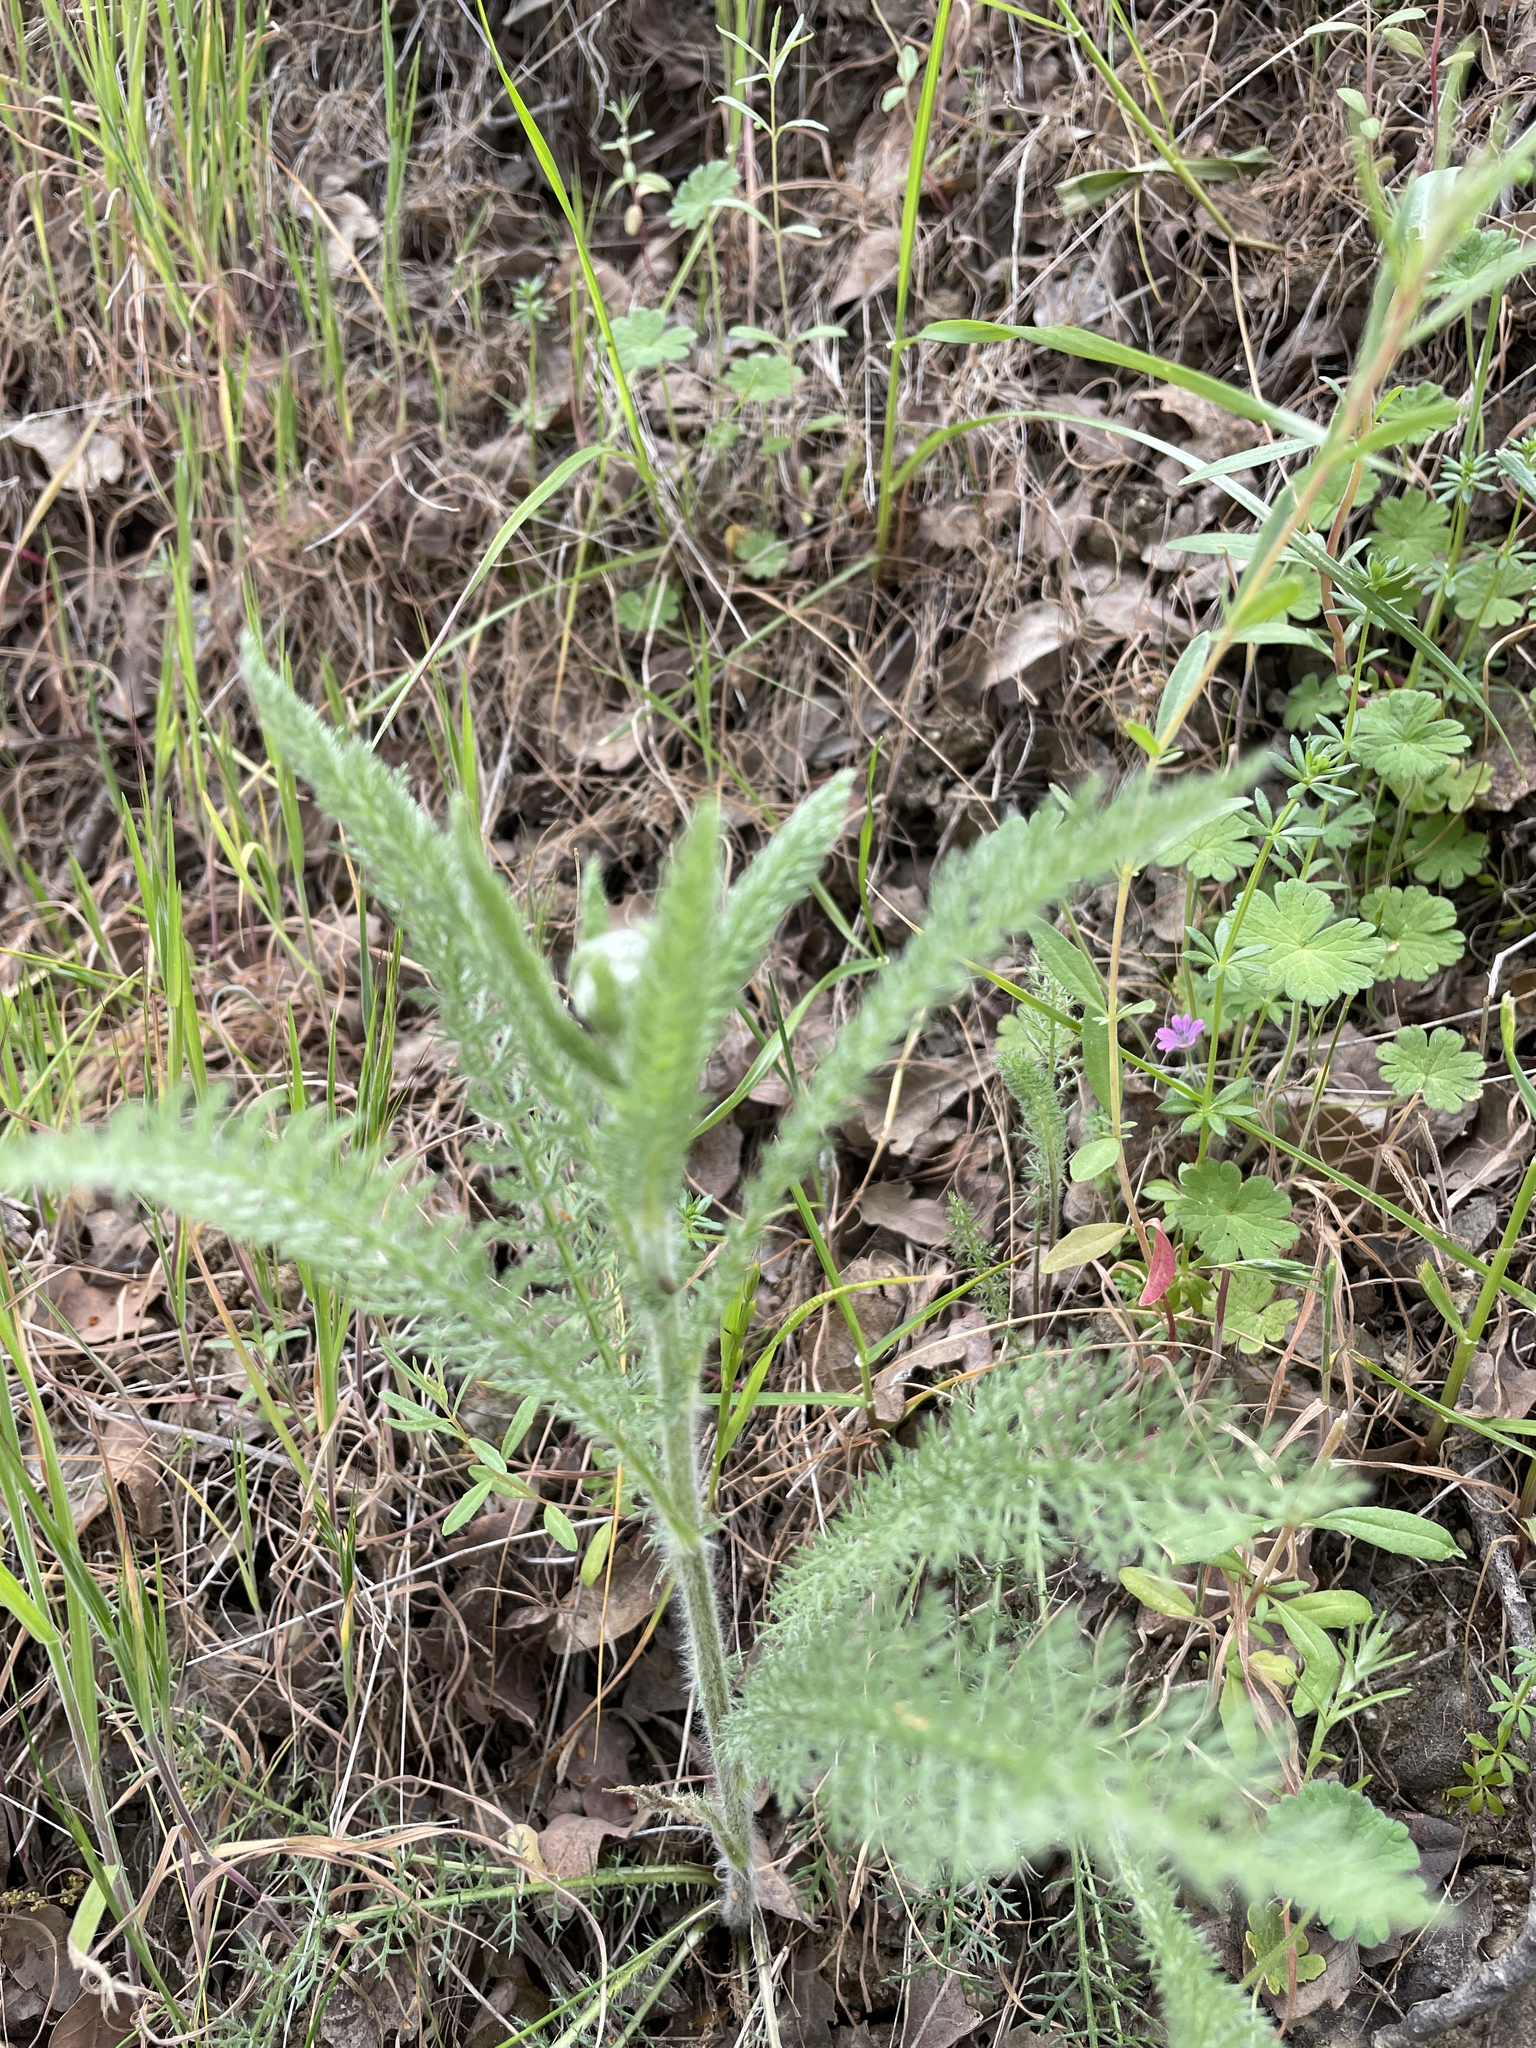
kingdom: Plantae
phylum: Tracheophyta
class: Magnoliopsida
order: Asterales
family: Asteraceae
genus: Achillea
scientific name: Achillea millefolium
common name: Yarrow
